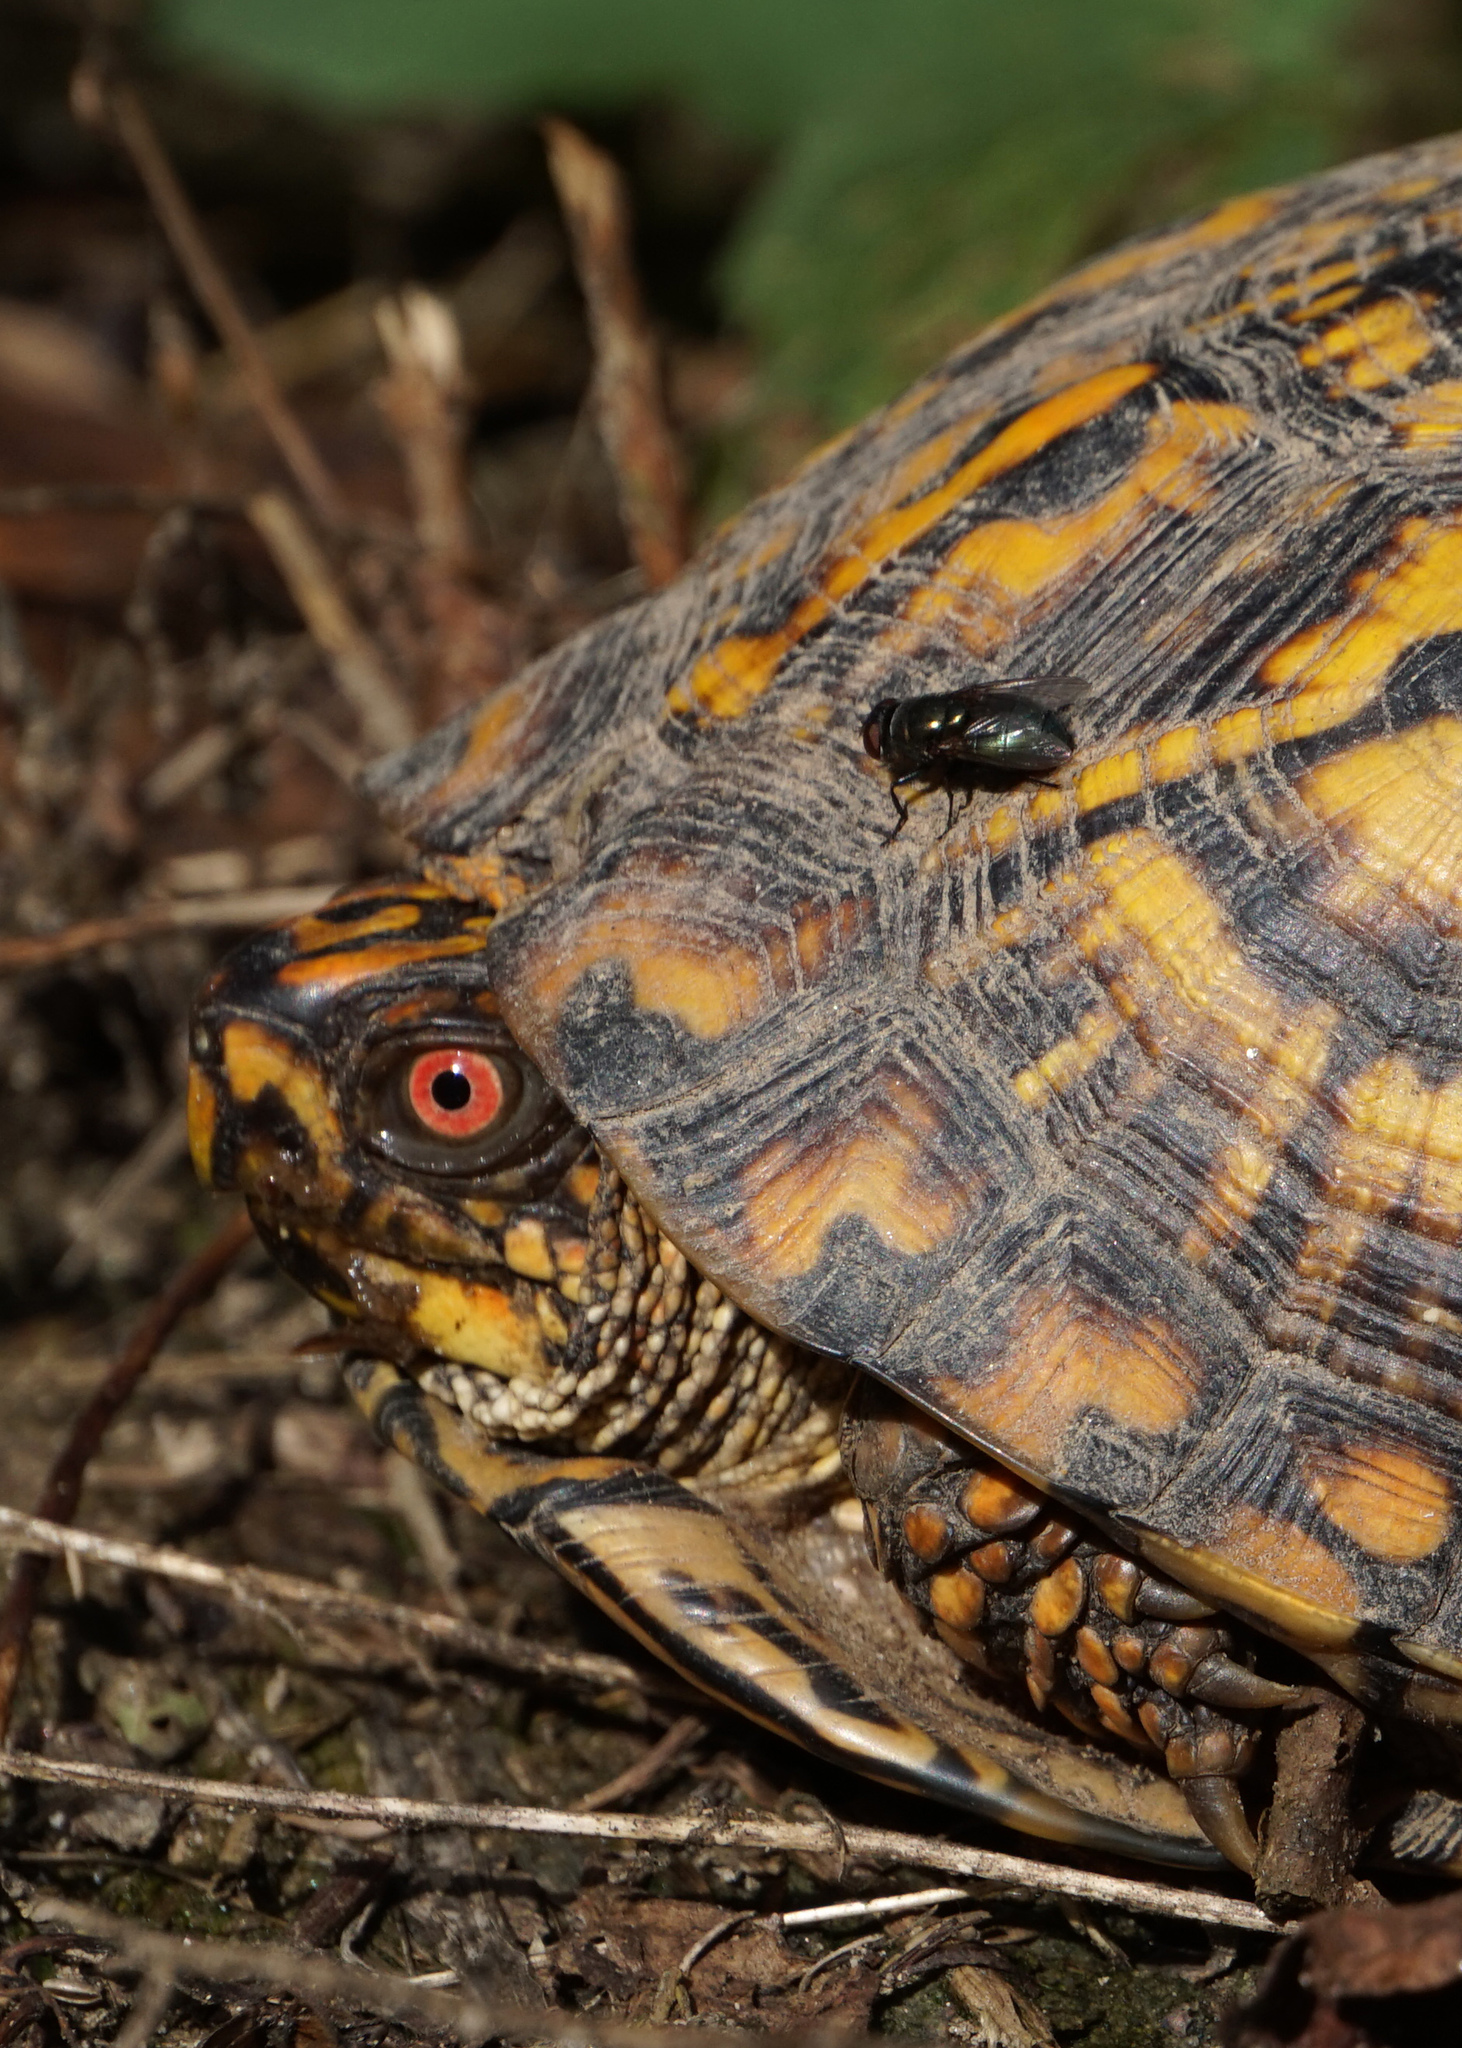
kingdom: Animalia
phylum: Arthropoda
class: Insecta
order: Diptera
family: Calliphoridae
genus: Phormia
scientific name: Phormia regina
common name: Black blow fly
